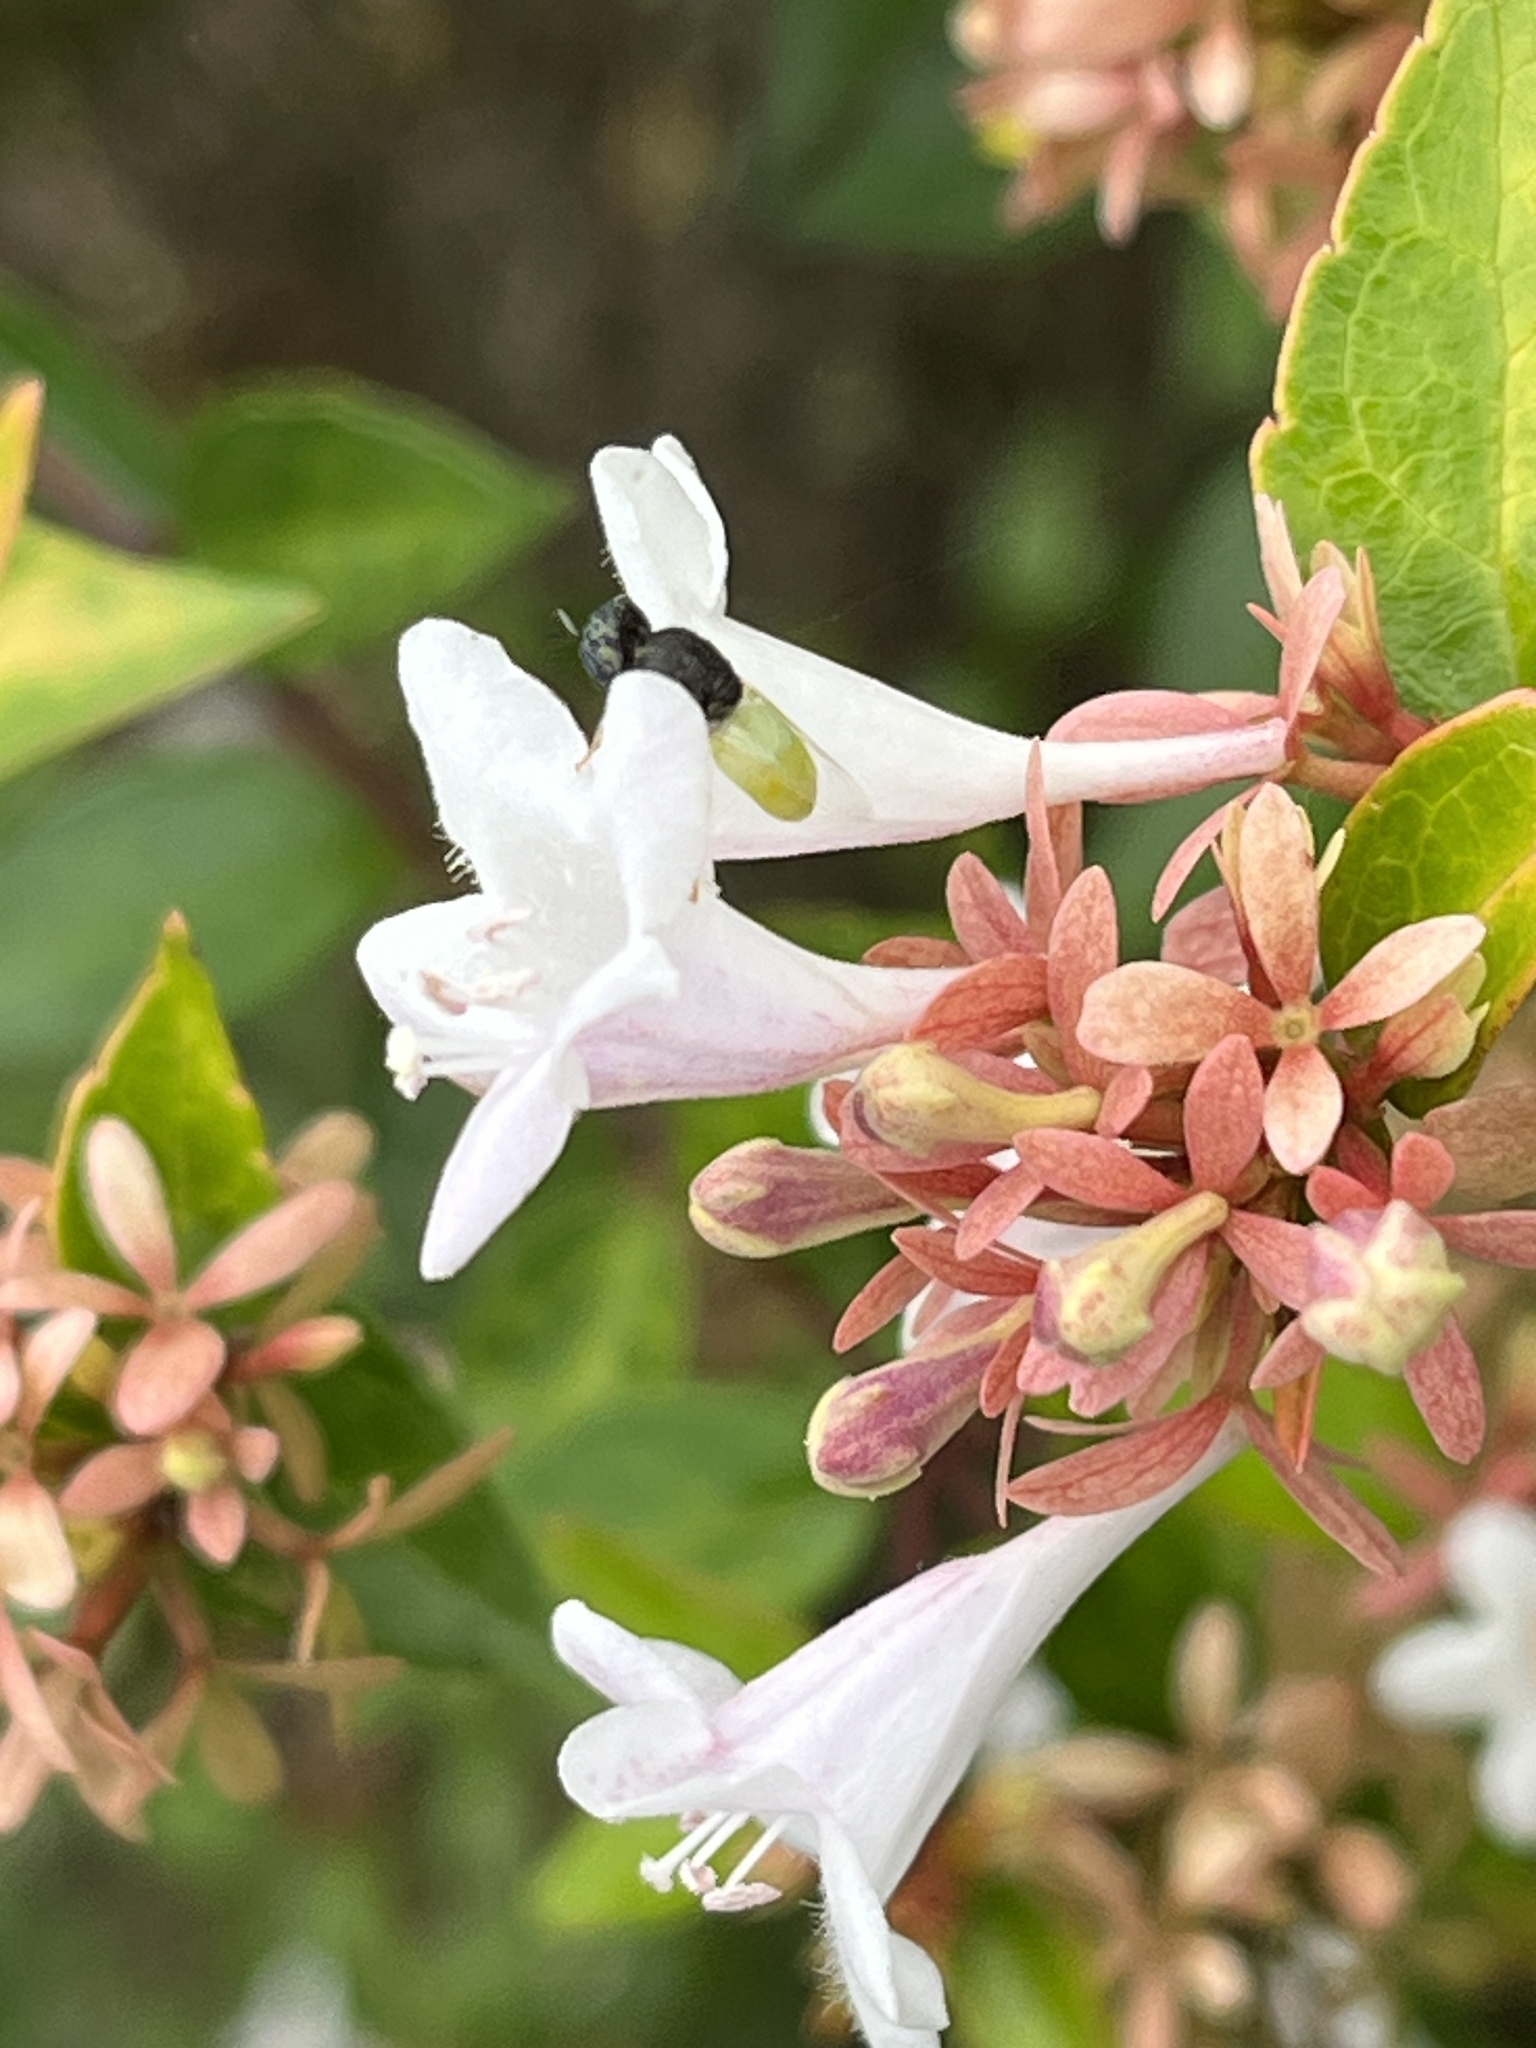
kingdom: Animalia
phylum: Arthropoda
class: Insecta
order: Diptera
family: Stratiomyidae
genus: Oplodontha
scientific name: Oplodontha rubrithorax
